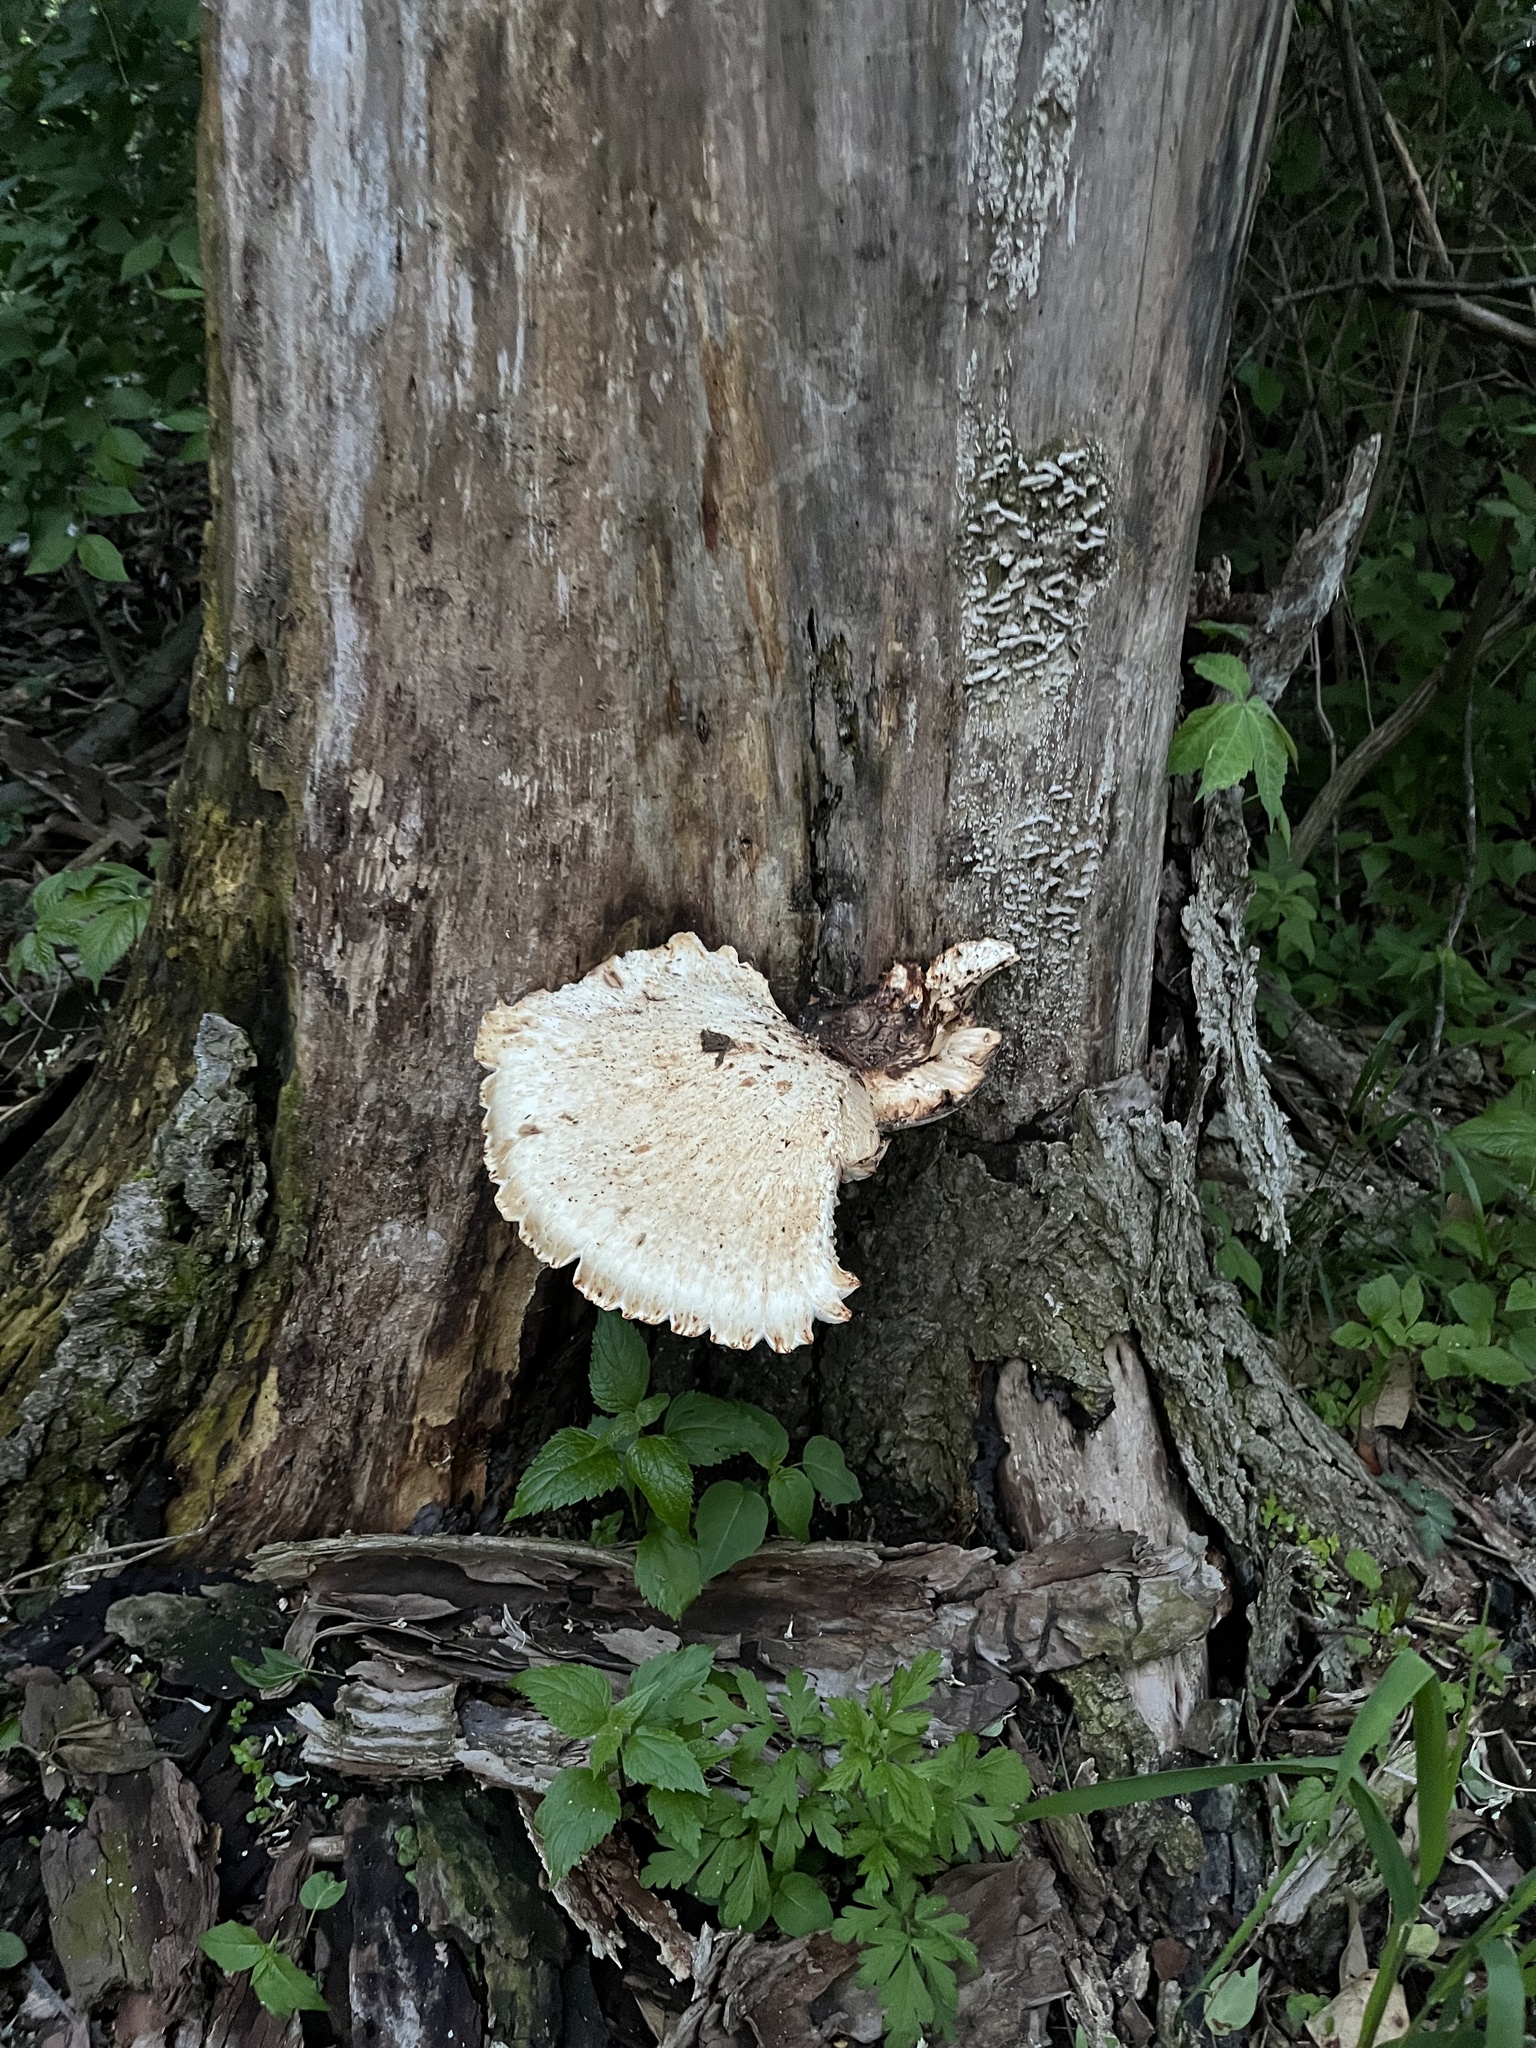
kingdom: Fungi
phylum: Basidiomycota
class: Agaricomycetes
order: Polyporales
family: Polyporaceae
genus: Cerioporus
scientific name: Cerioporus squamosus
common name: Dryad's saddle
